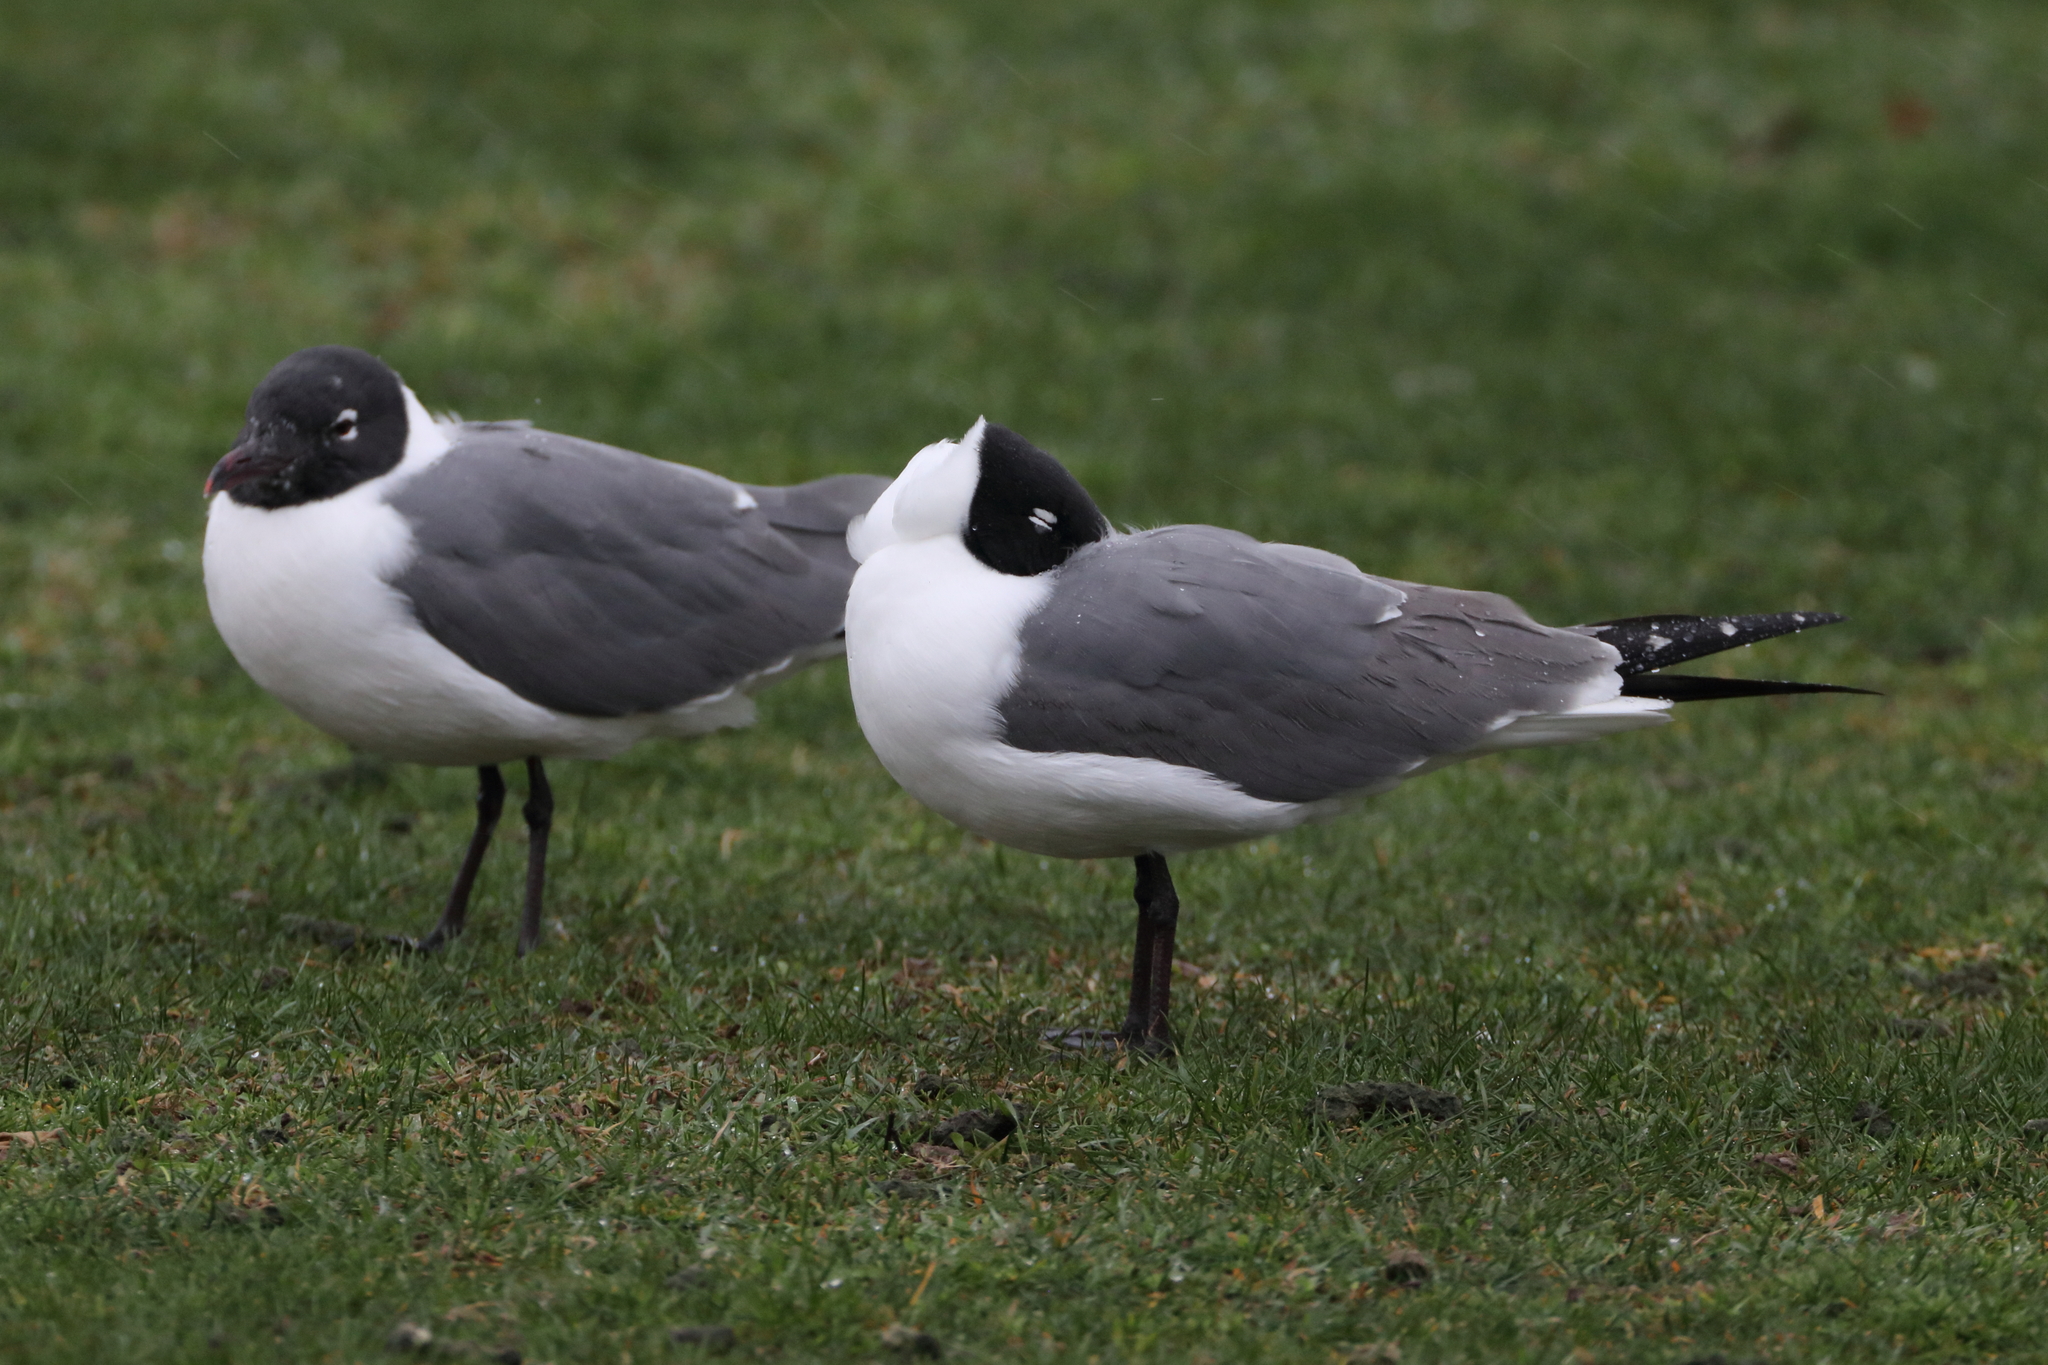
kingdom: Animalia
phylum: Chordata
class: Aves
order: Charadriiformes
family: Laridae
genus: Leucophaeus
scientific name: Leucophaeus atricilla
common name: Laughing gull
